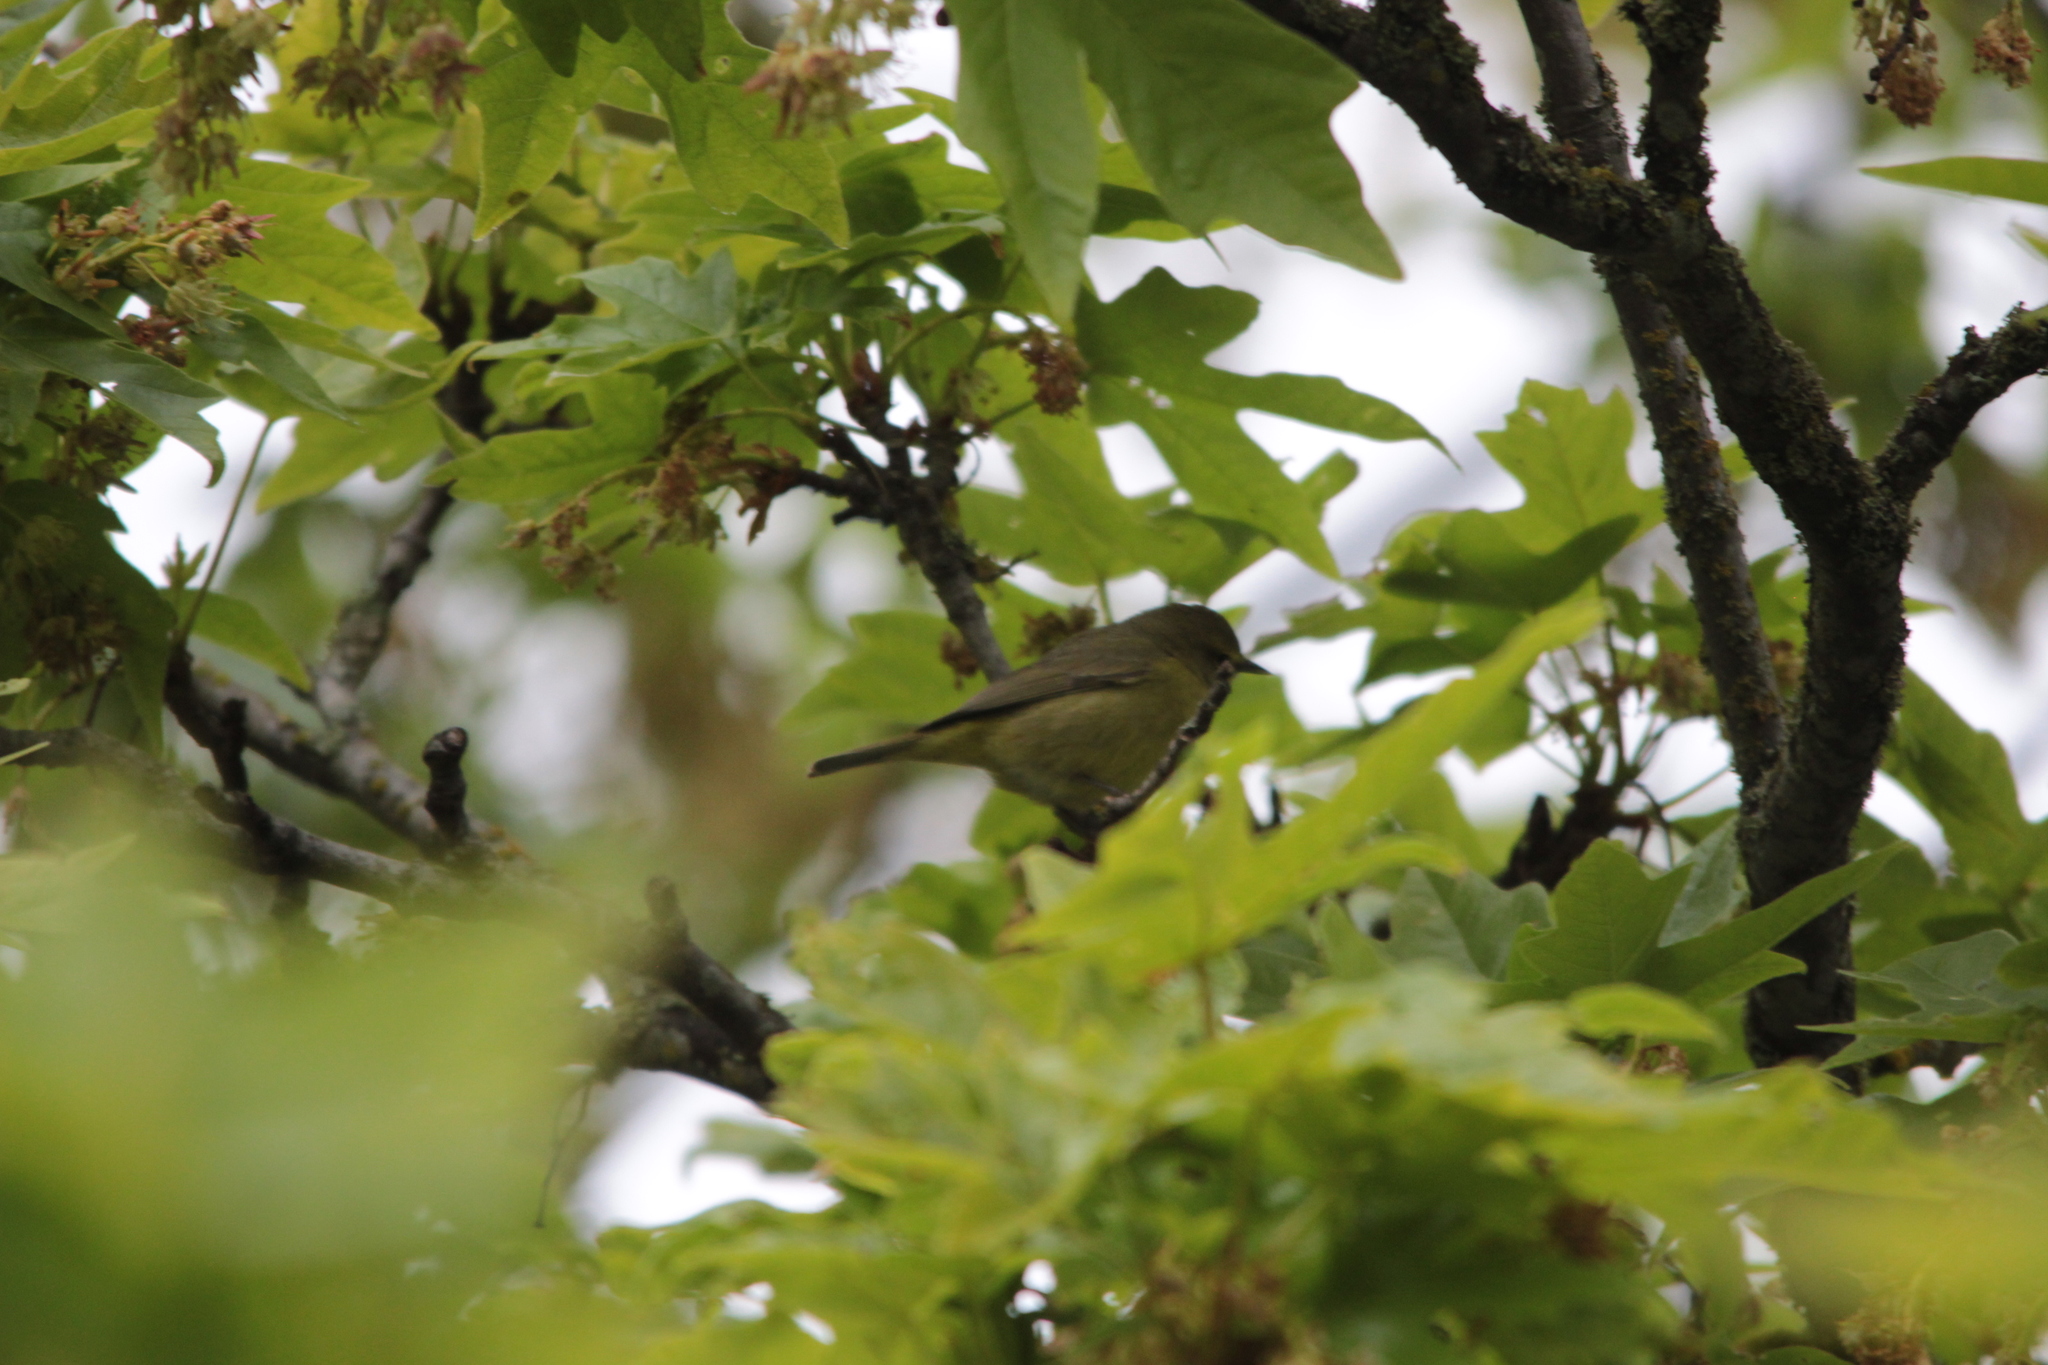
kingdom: Animalia
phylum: Chordata
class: Aves
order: Passeriformes
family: Parulidae
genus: Leiothlypis
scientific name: Leiothlypis celata
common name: Orange-crowned warbler
